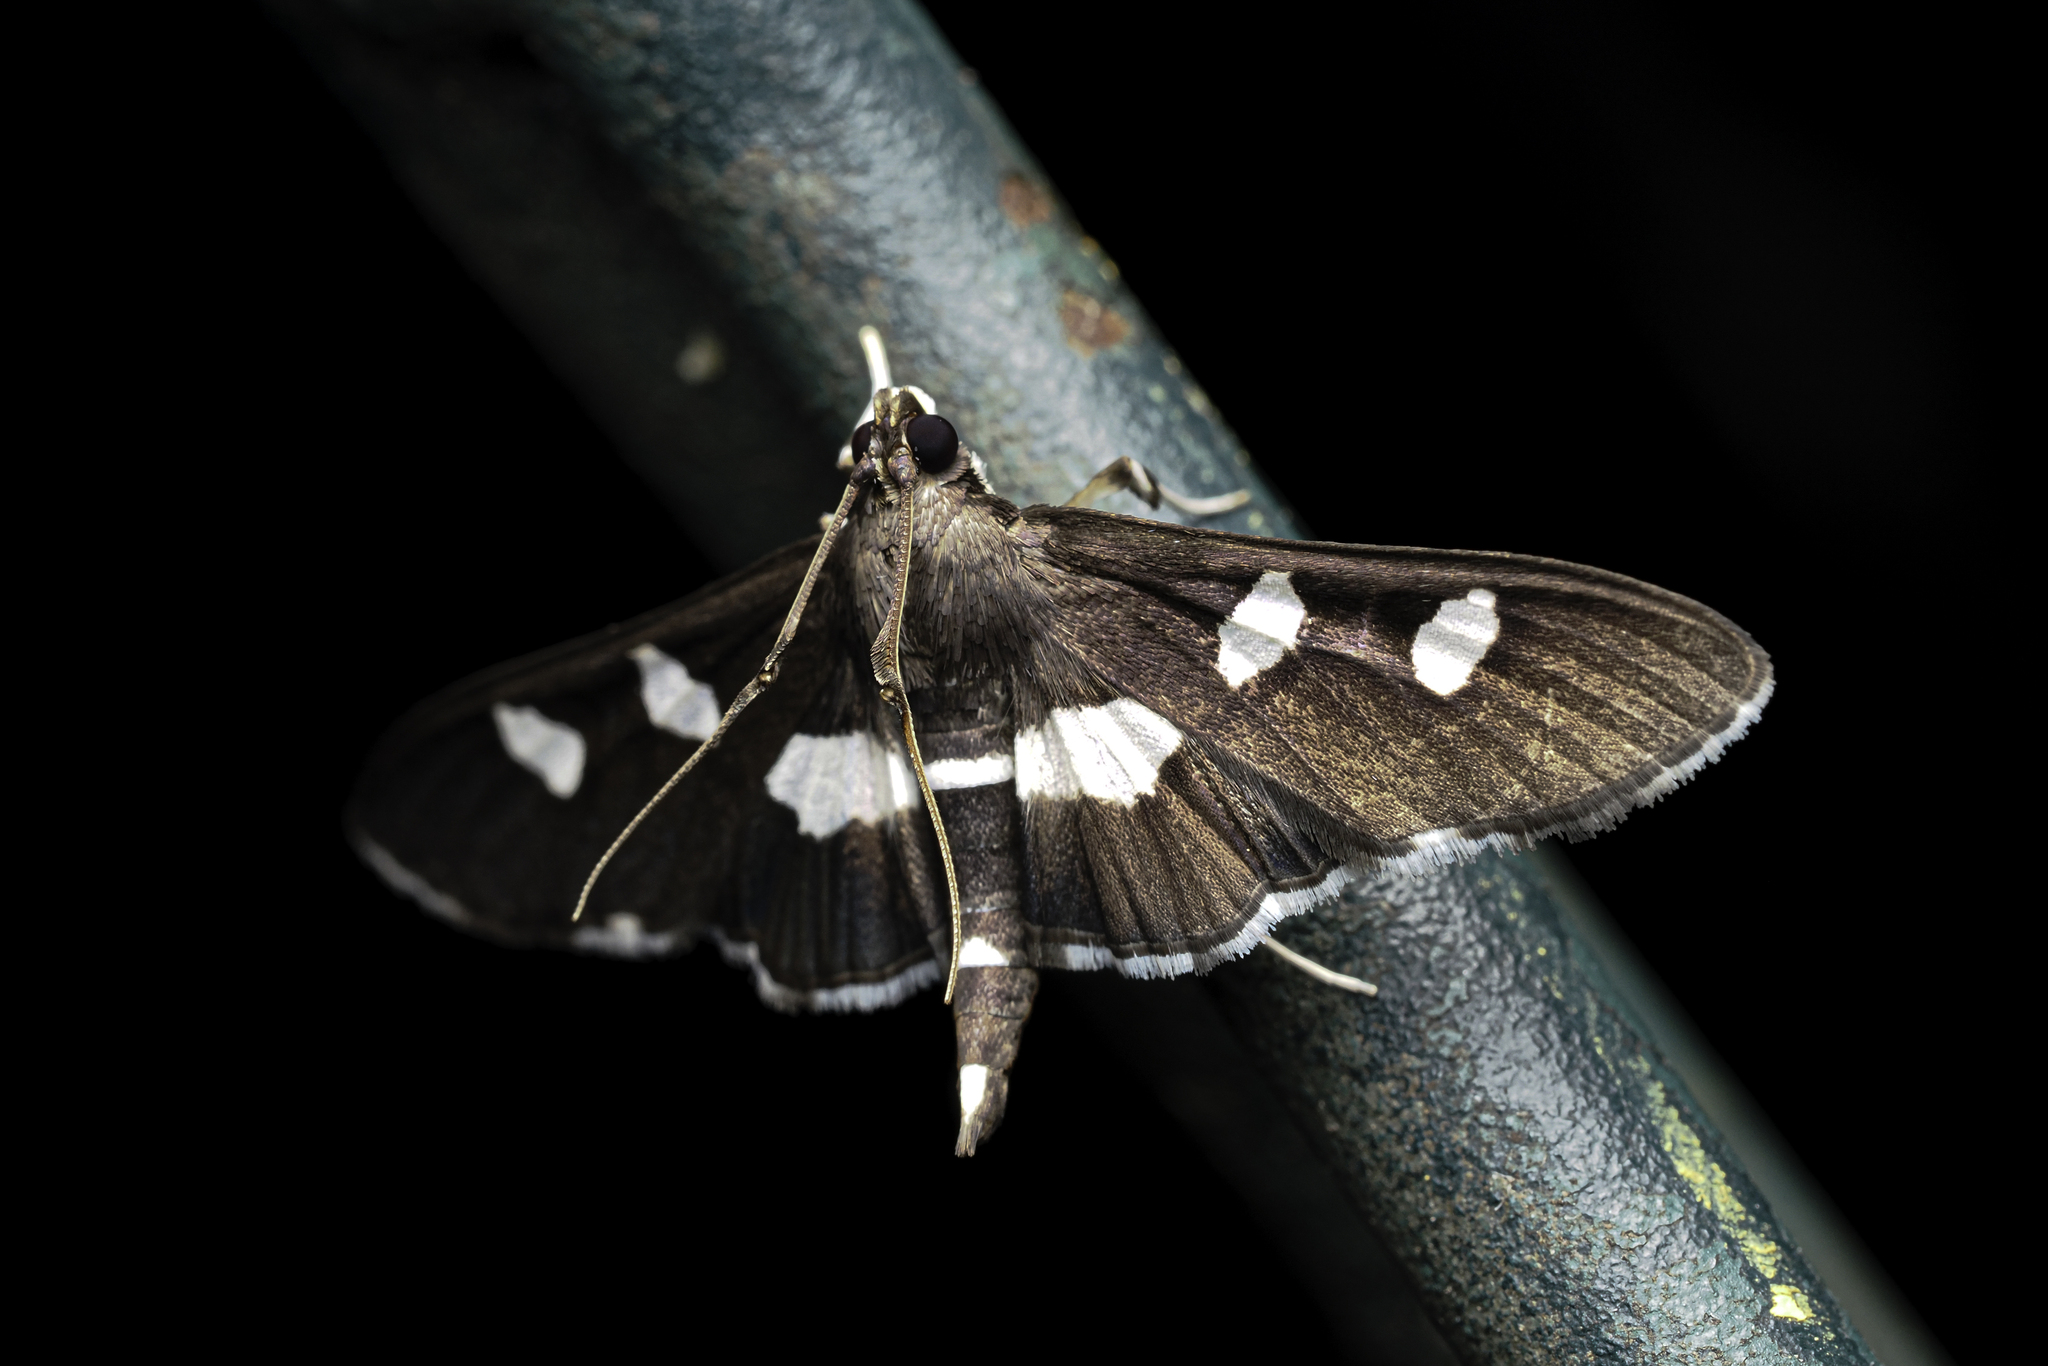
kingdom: Animalia
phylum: Arthropoda
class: Insecta
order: Lepidoptera
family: Crambidae
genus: Desmia
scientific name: Desmia
